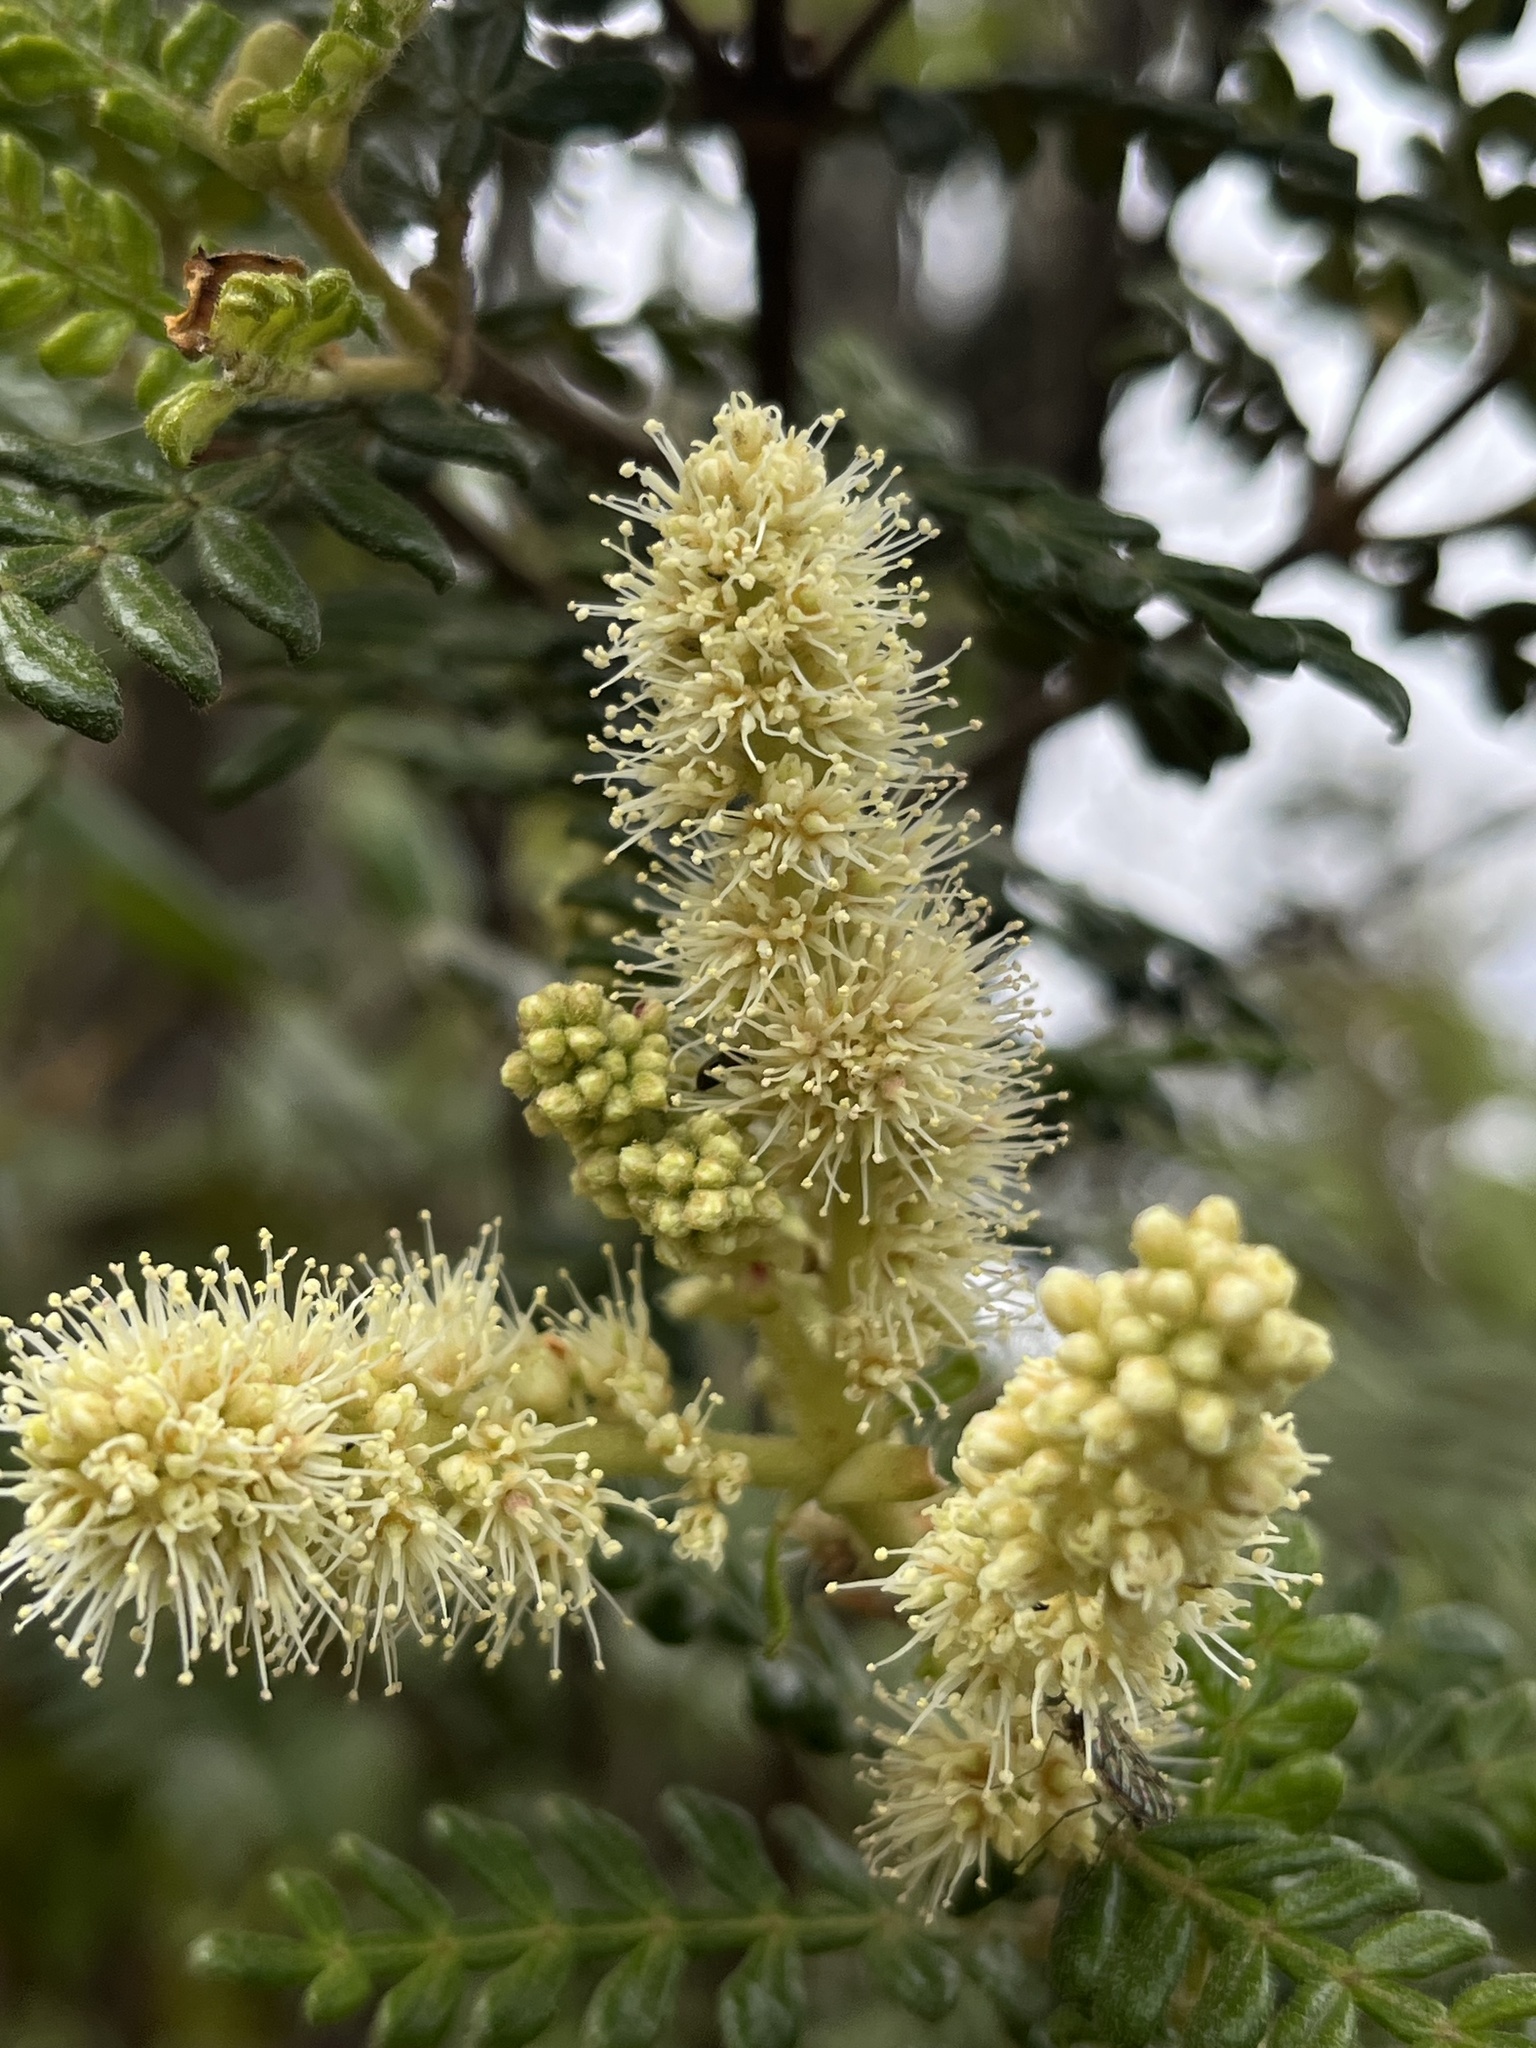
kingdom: Plantae
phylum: Tracheophyta
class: Magnoliopsida
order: Oxalidales
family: Cunoniaceae
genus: Weinmannia
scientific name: Weinmannia tomentosa
